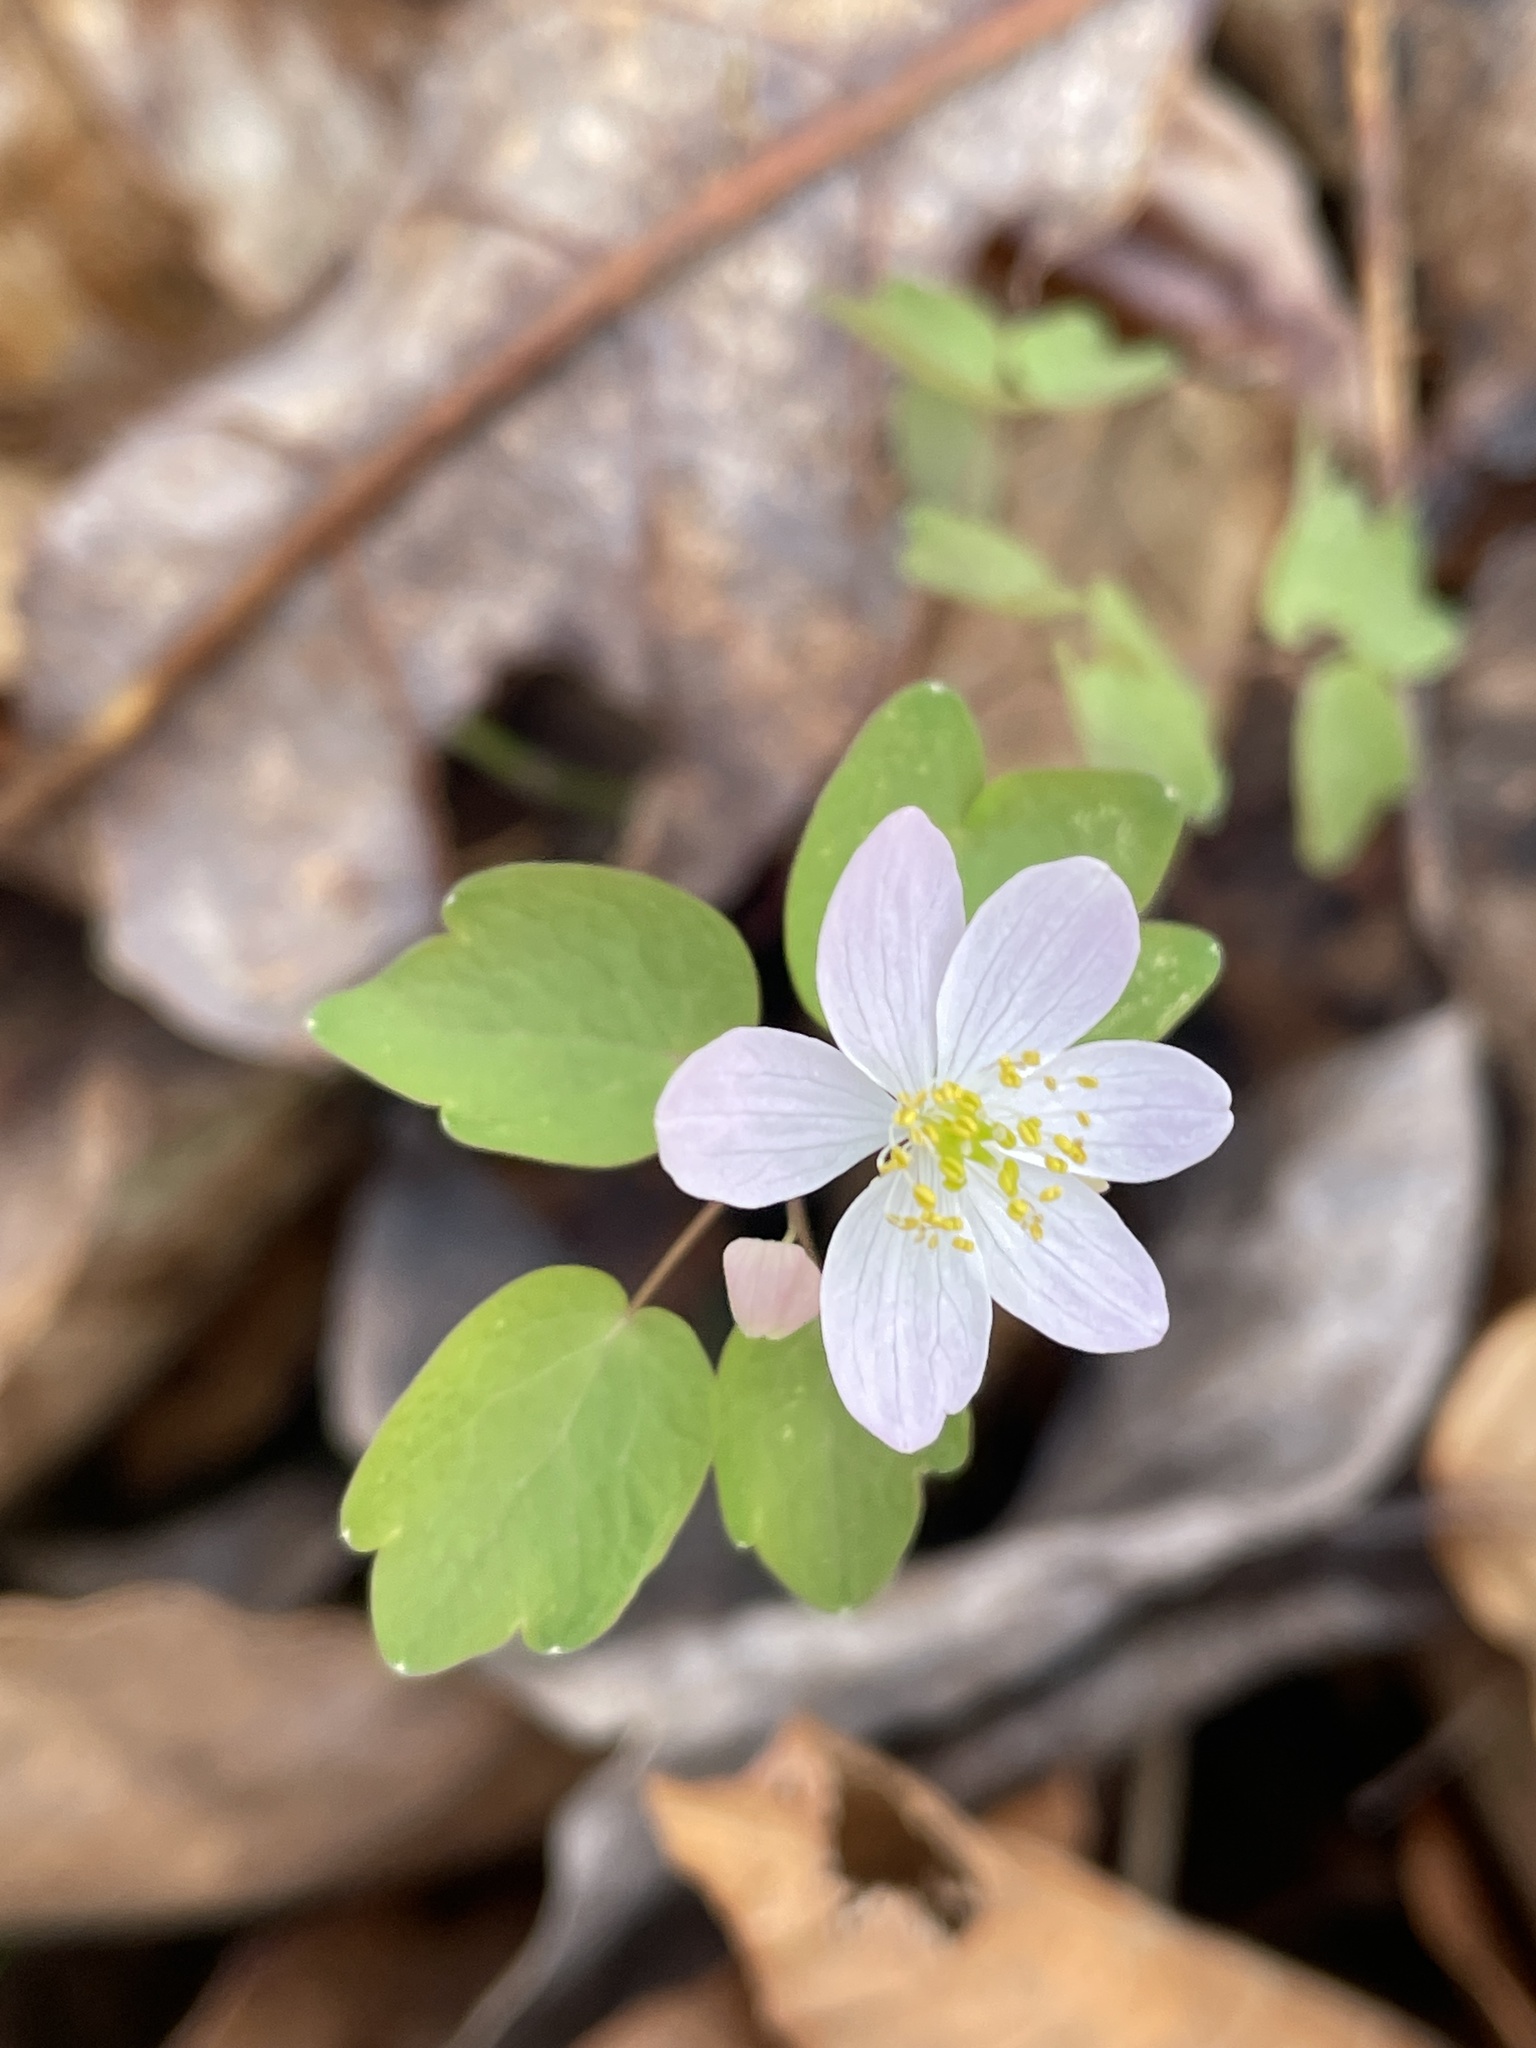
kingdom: Plantae
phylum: Tracheophyta
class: Magnoliopsida
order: Ranunculales
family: Ranunculaceae
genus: Thalictrum
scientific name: Thalictrum thalictroides
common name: Rue-anemone
